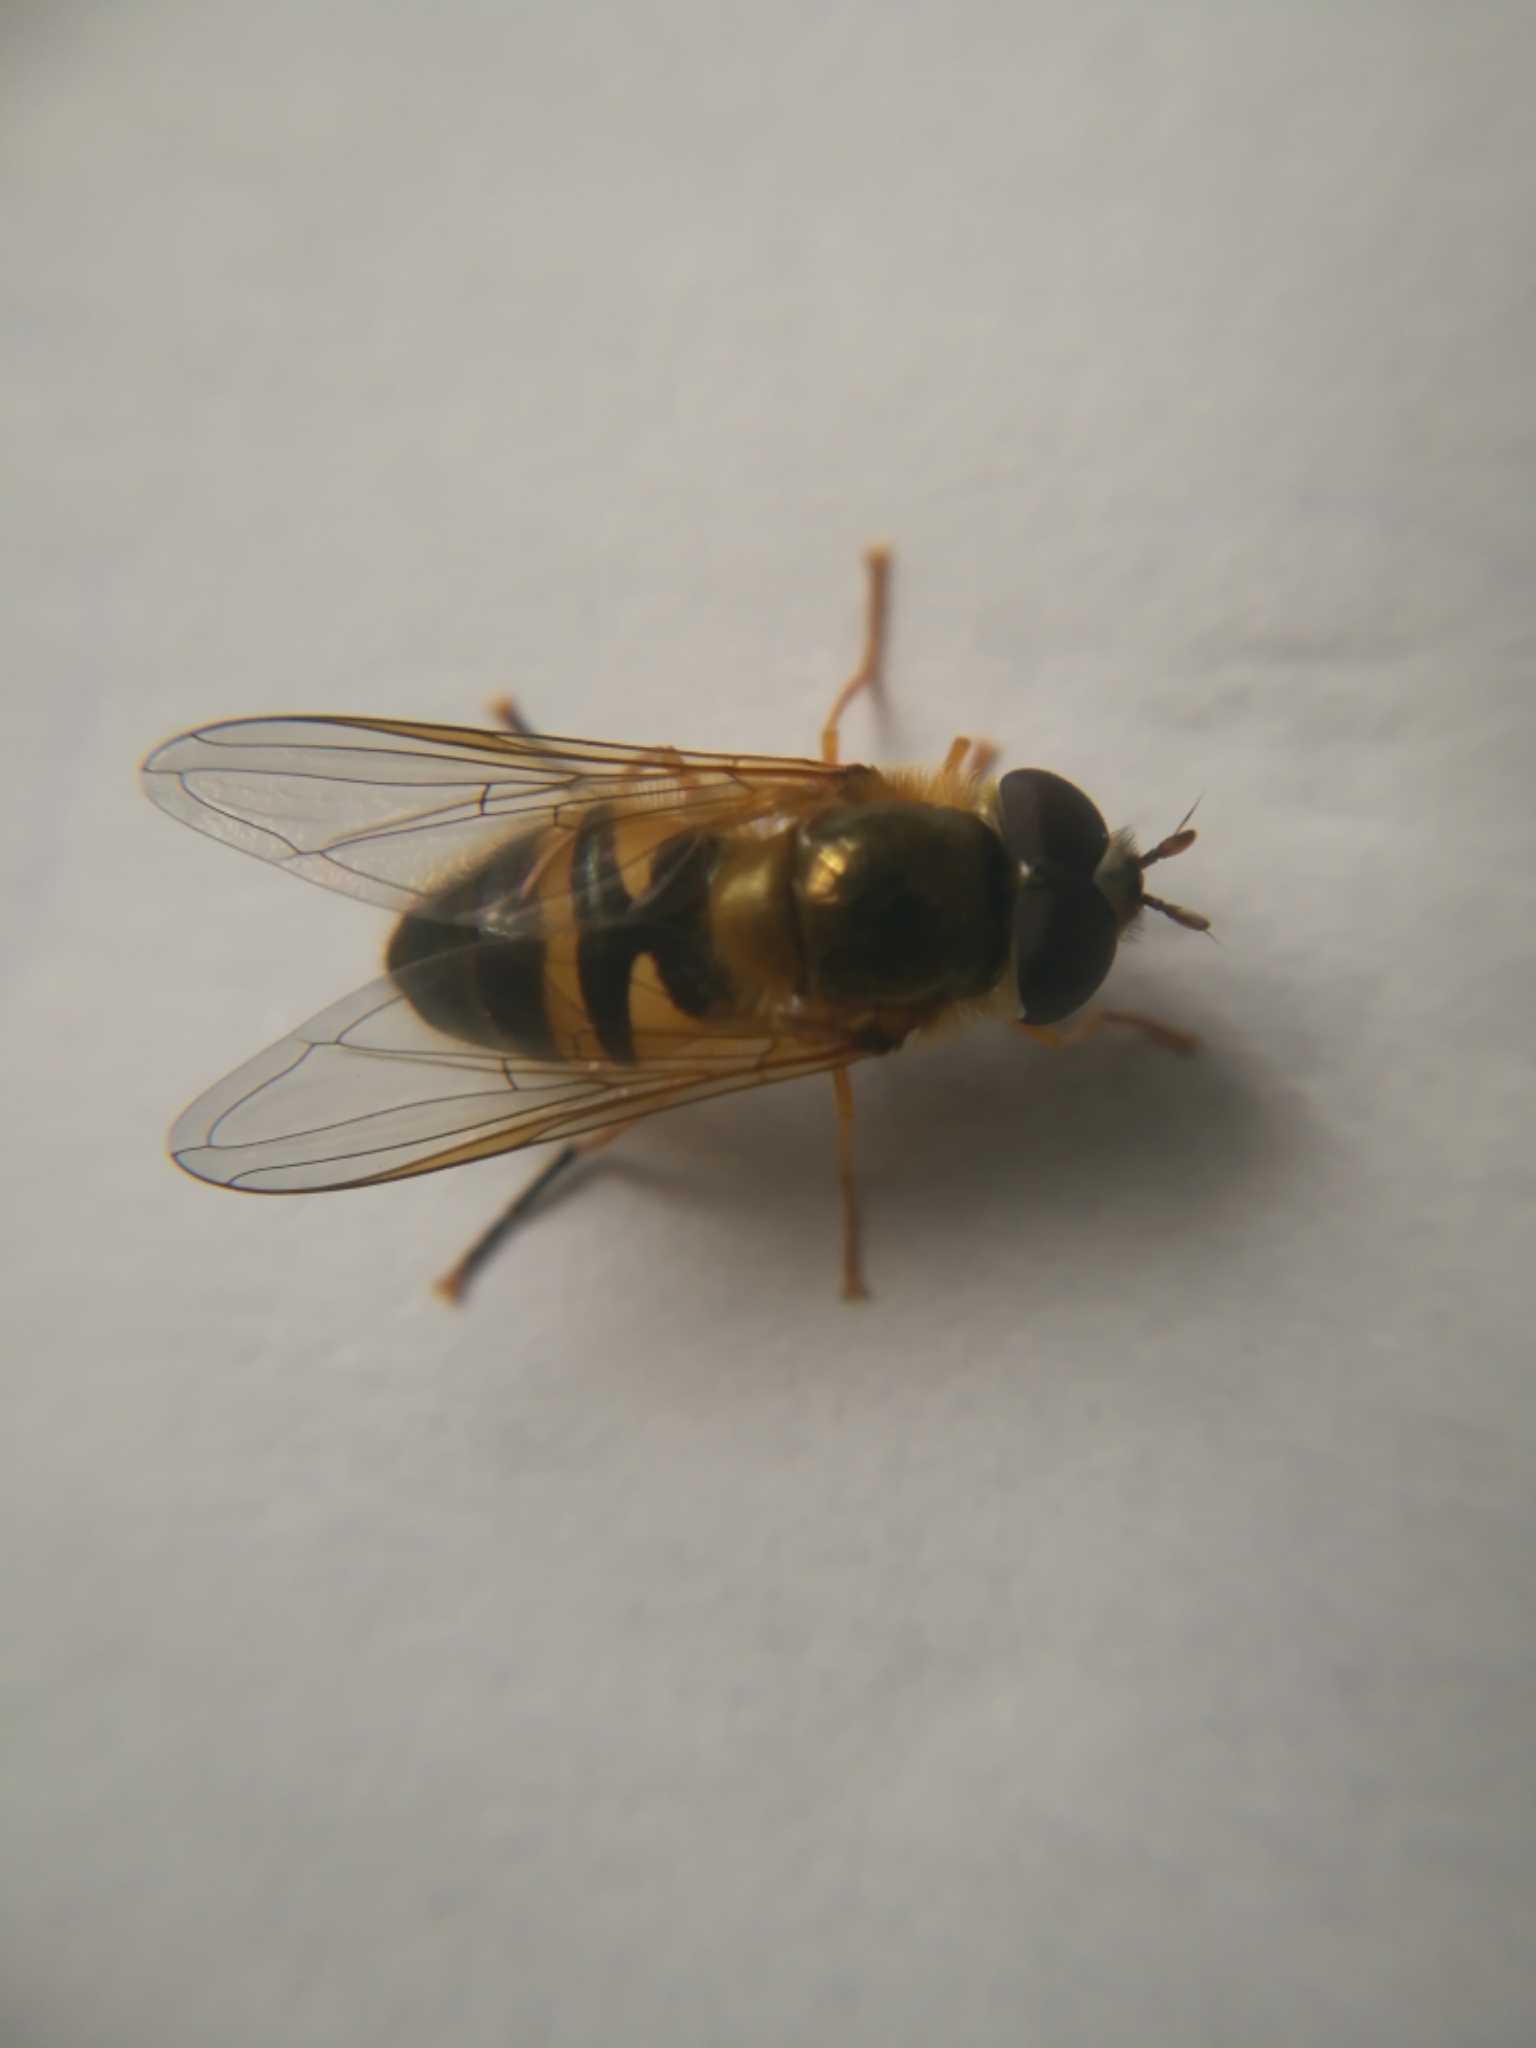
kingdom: Animalia
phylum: Arthropoda
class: Insecta
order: Diptera
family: Syrphidae
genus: Epistrophe
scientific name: Epistrophe eligans
